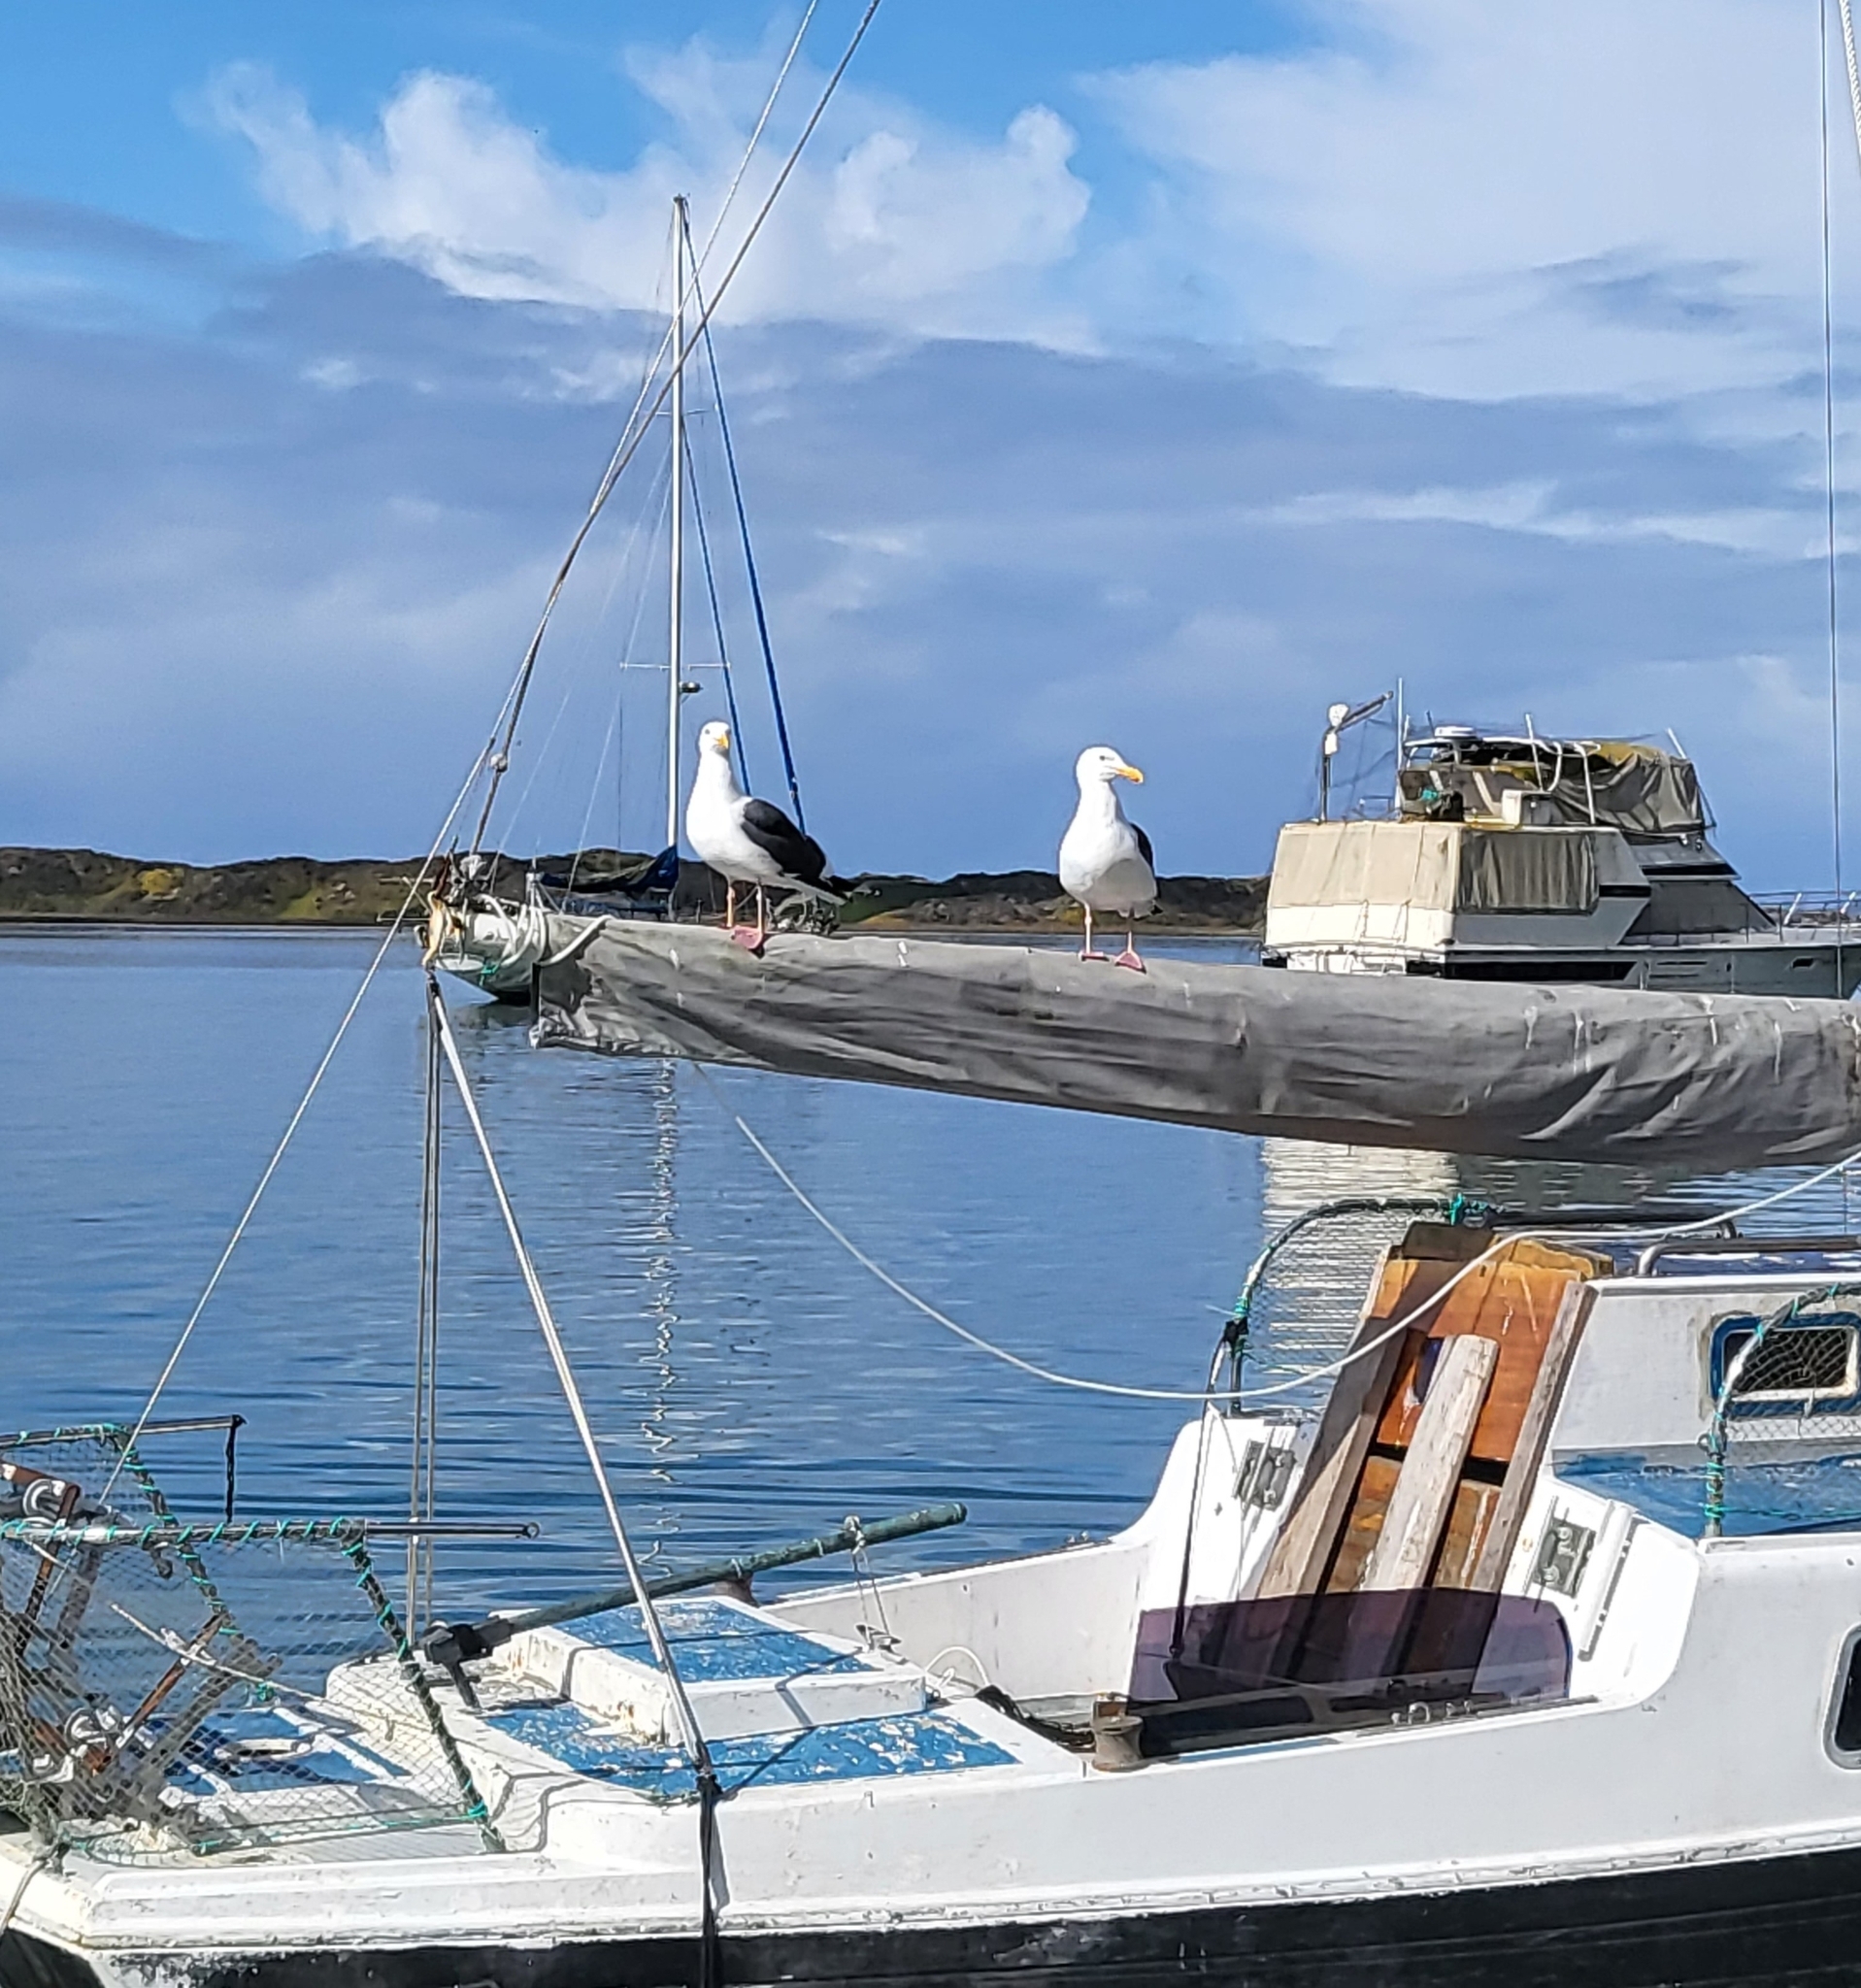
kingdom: Animalia
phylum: Chordata
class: Aves
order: Charadriiformes
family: Laridae
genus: Larus
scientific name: Larus occidentalis
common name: Western gull
